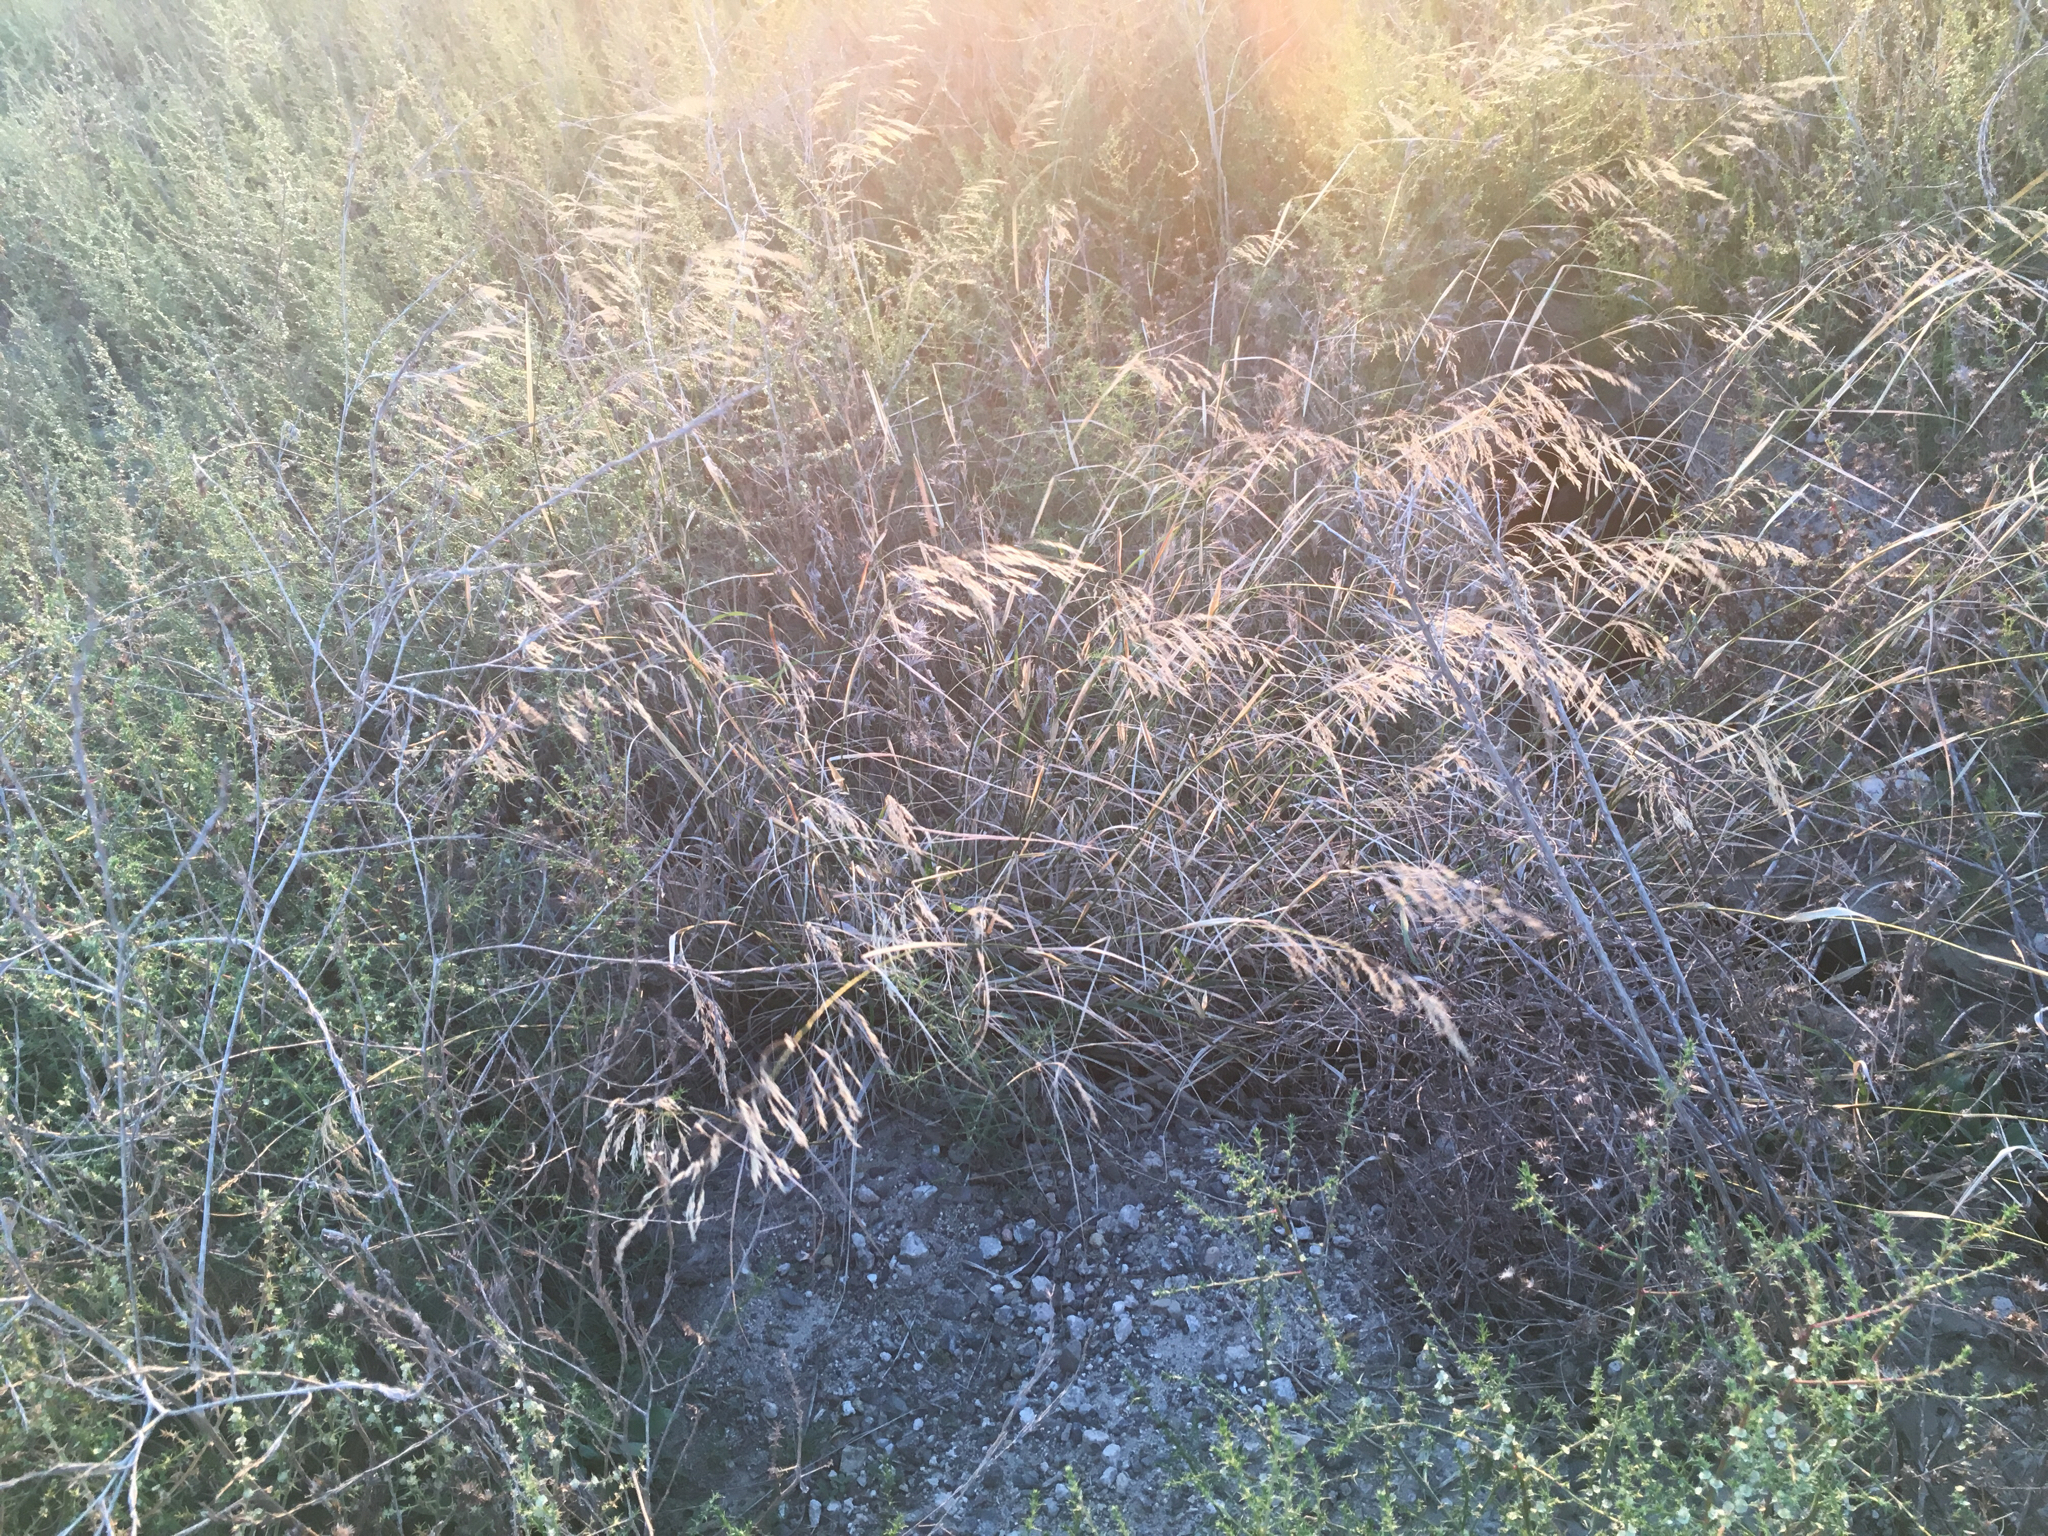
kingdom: Plantae
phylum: Tracheophyta
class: Liliopsida
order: Poales
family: Poaceae
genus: Oloptum
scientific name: Oloptum miliaceum
